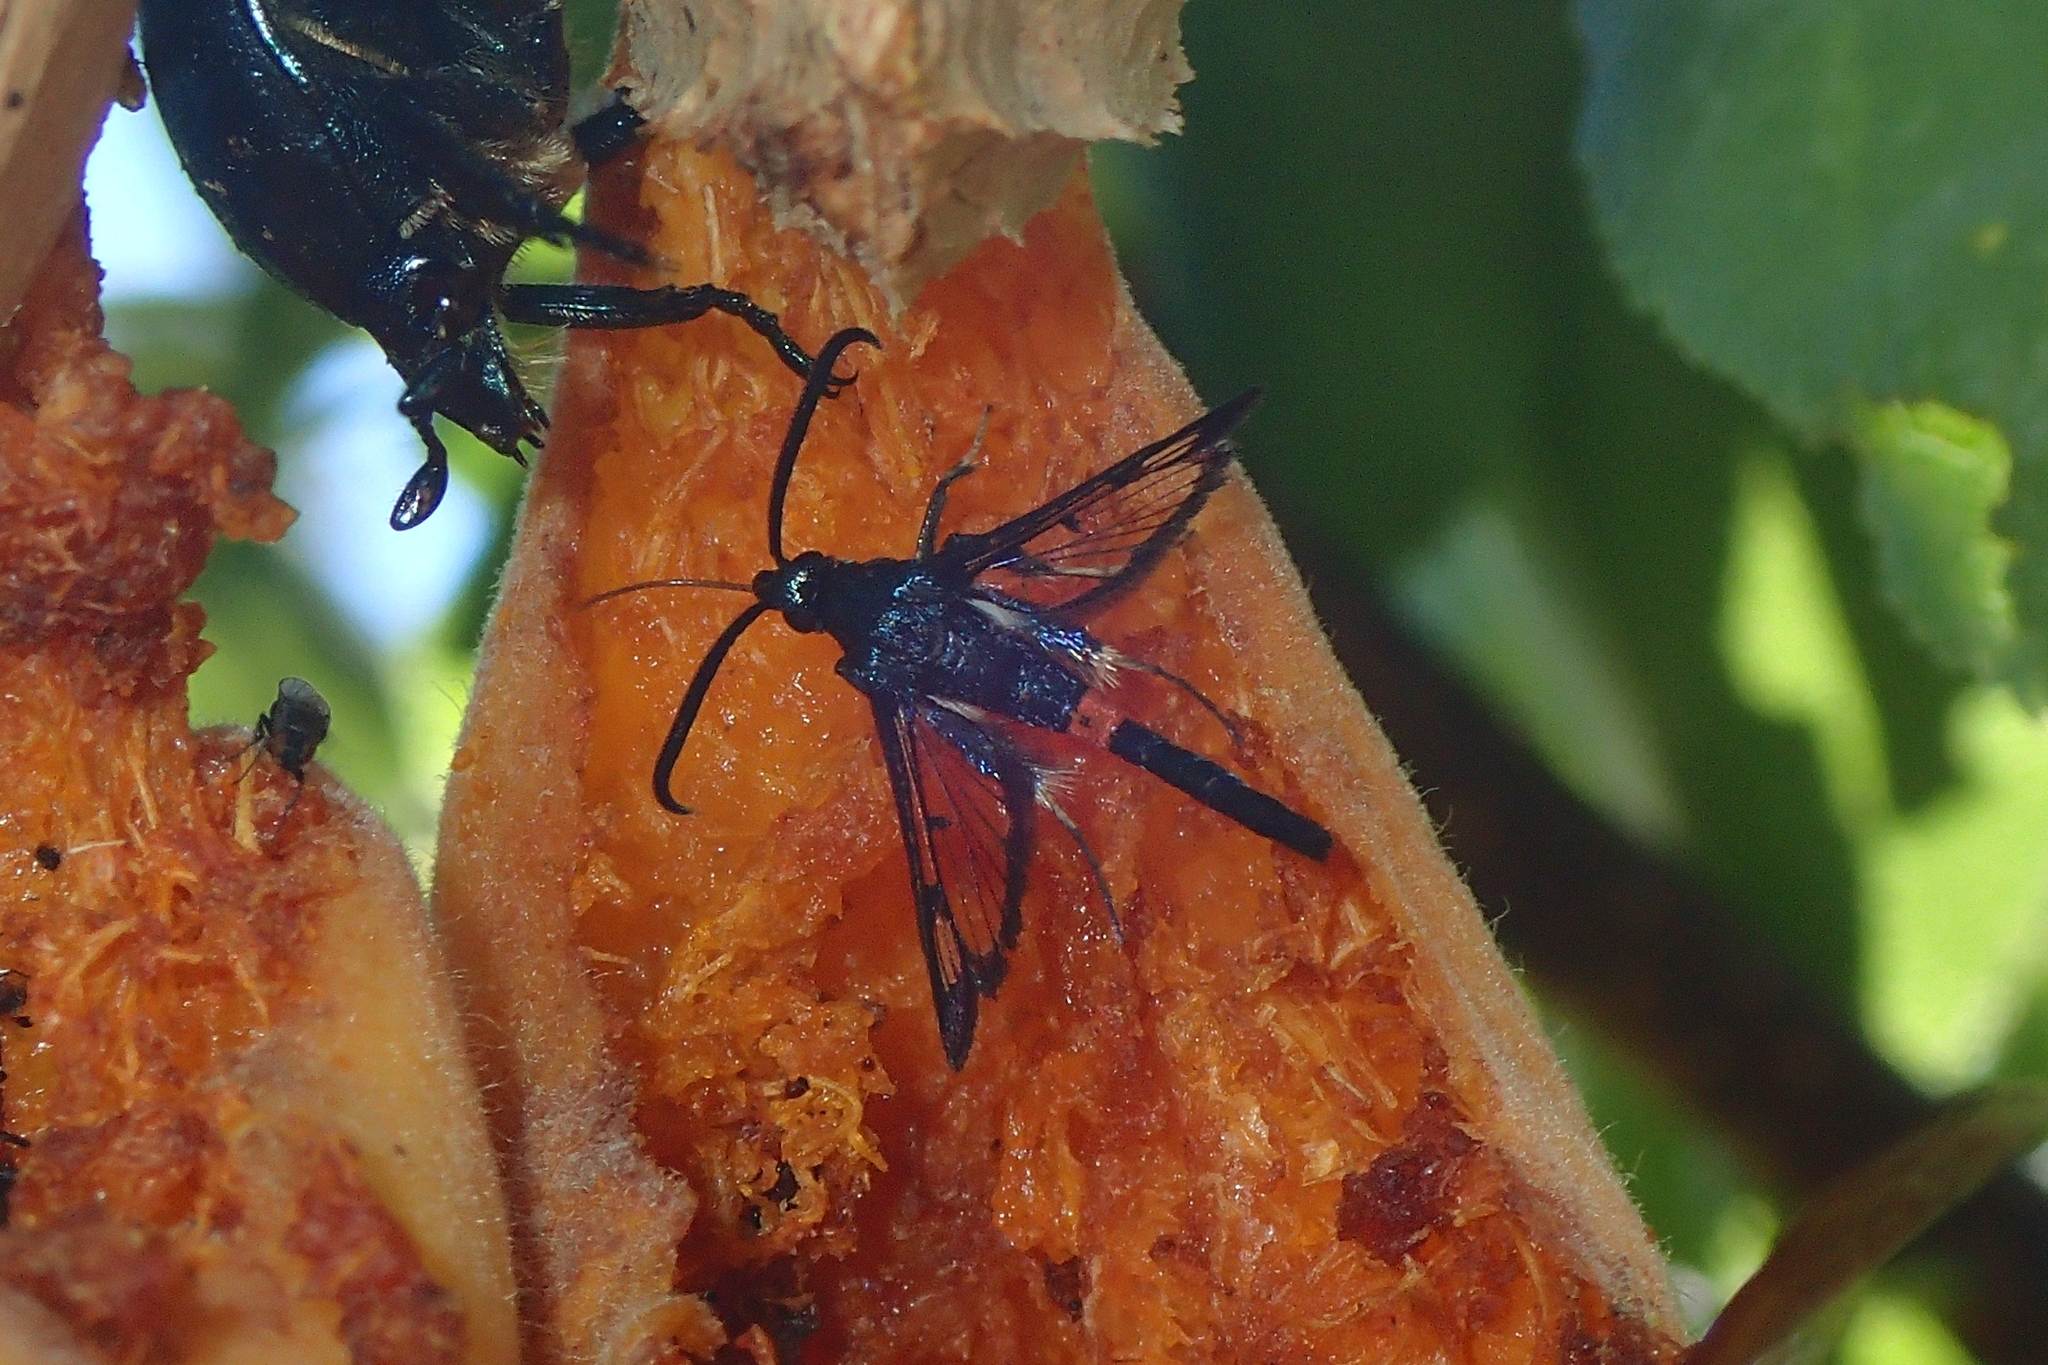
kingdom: Animalia
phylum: Arthropoda
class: Insecta
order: Lepidoptera
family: Sesiidae
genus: Synanthedon
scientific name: Synanthedon myopaeformis
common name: Red-belted clearwing
